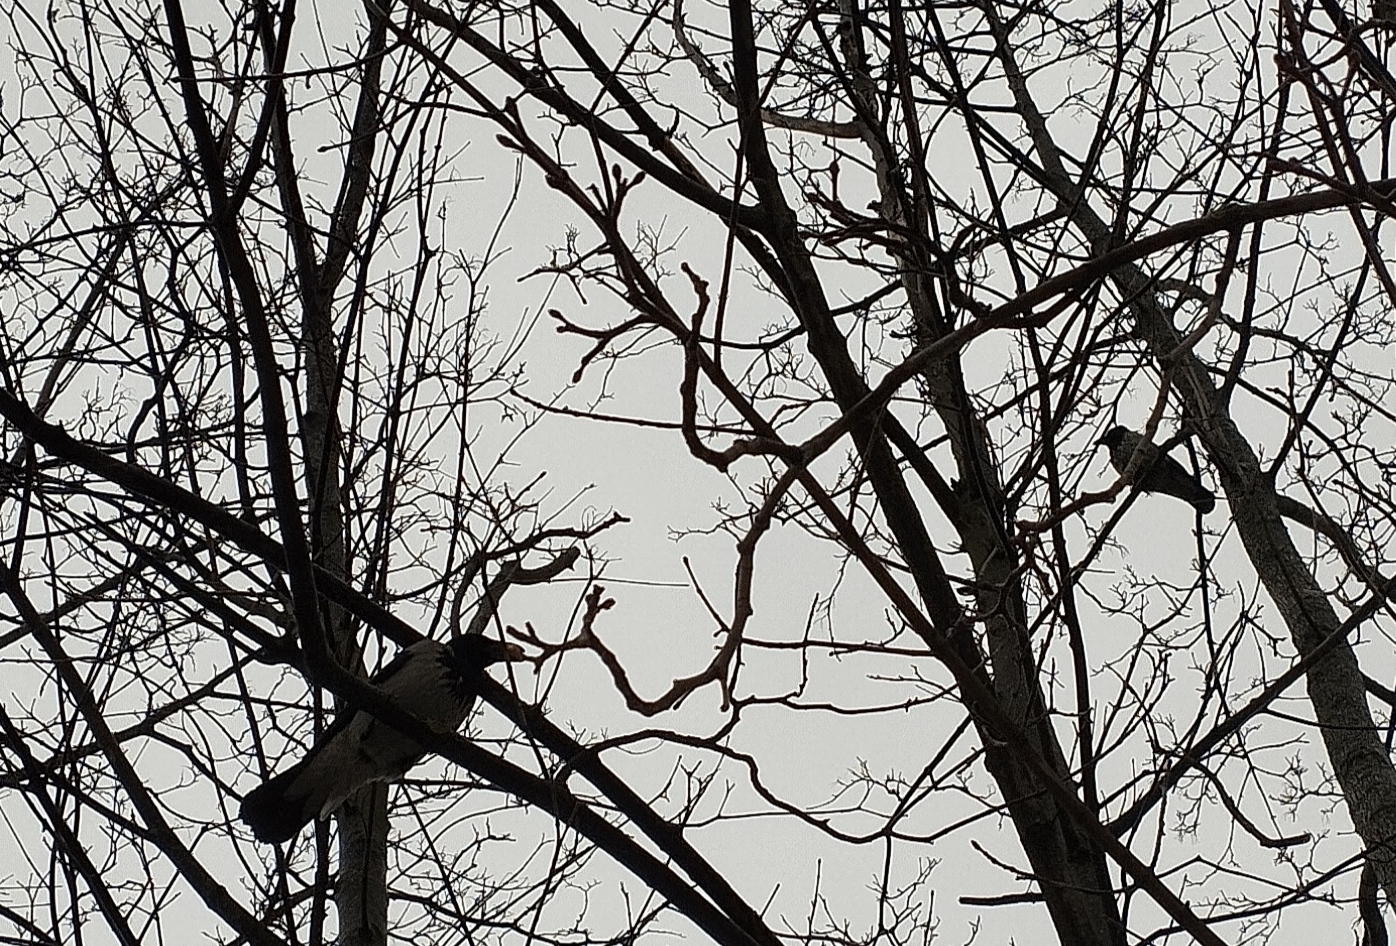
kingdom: Animalia
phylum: Chordata
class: Aves
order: Passeriformes
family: Corvidae
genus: Corvus
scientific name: Corvus cornix
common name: Hooded crow
